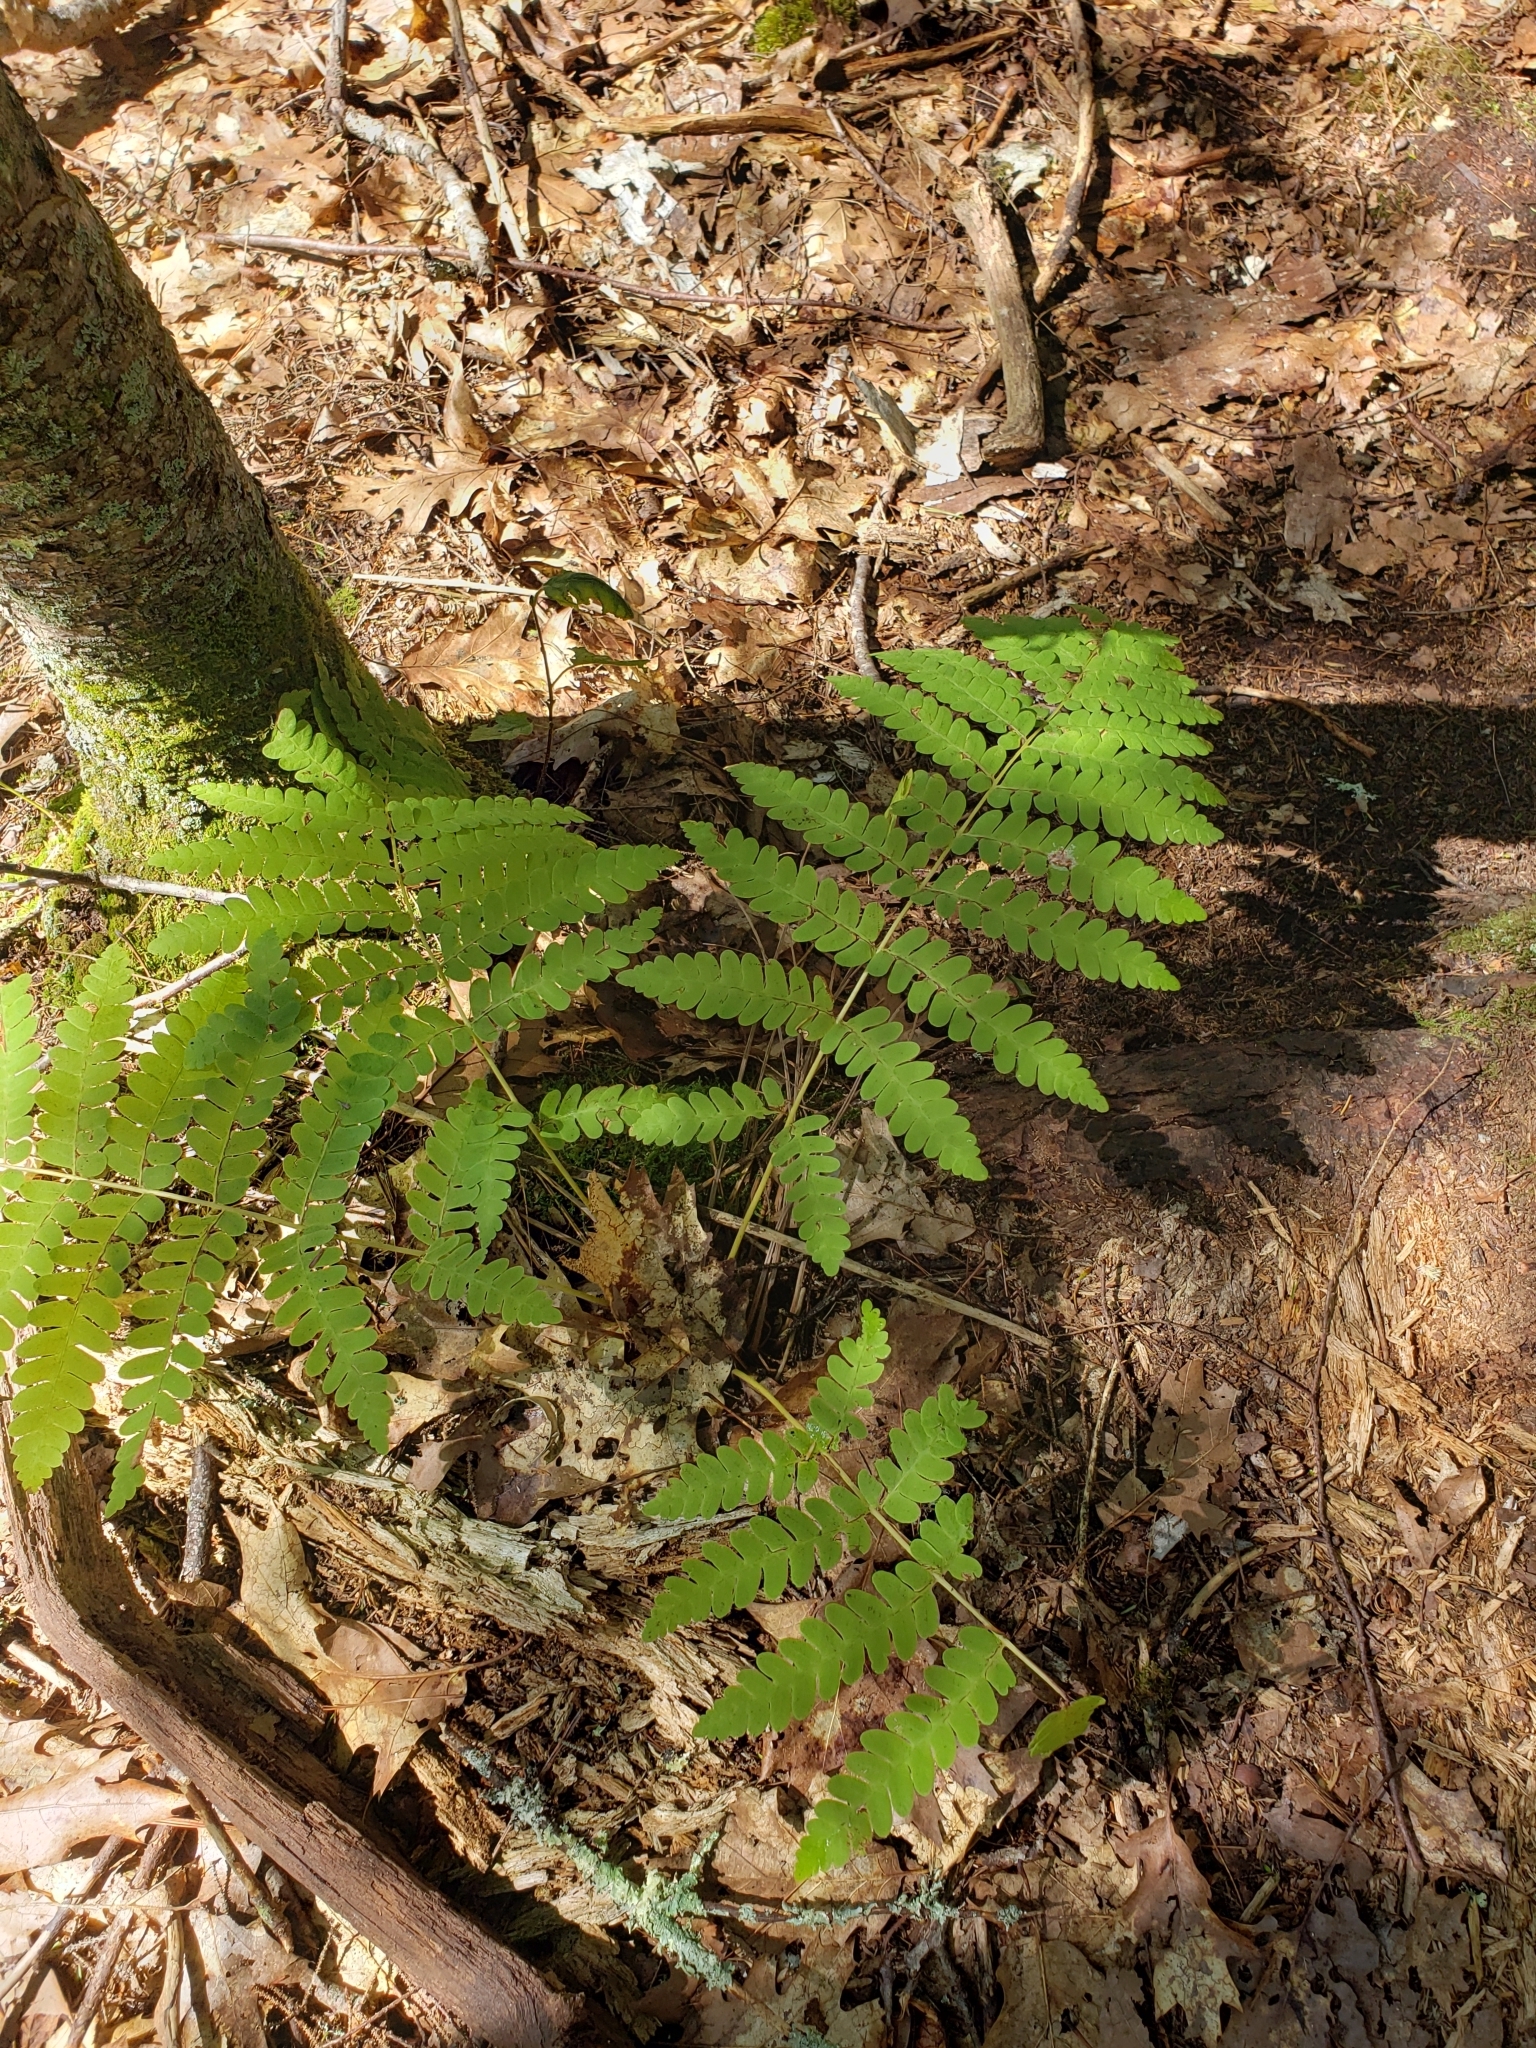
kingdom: Plantae
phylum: Tracheophyta
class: Polypodiopsida
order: Osmundales
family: Osmundaceae
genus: Claytosmunda
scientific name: Claytosmunda claytoniana
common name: Clayton's fern
